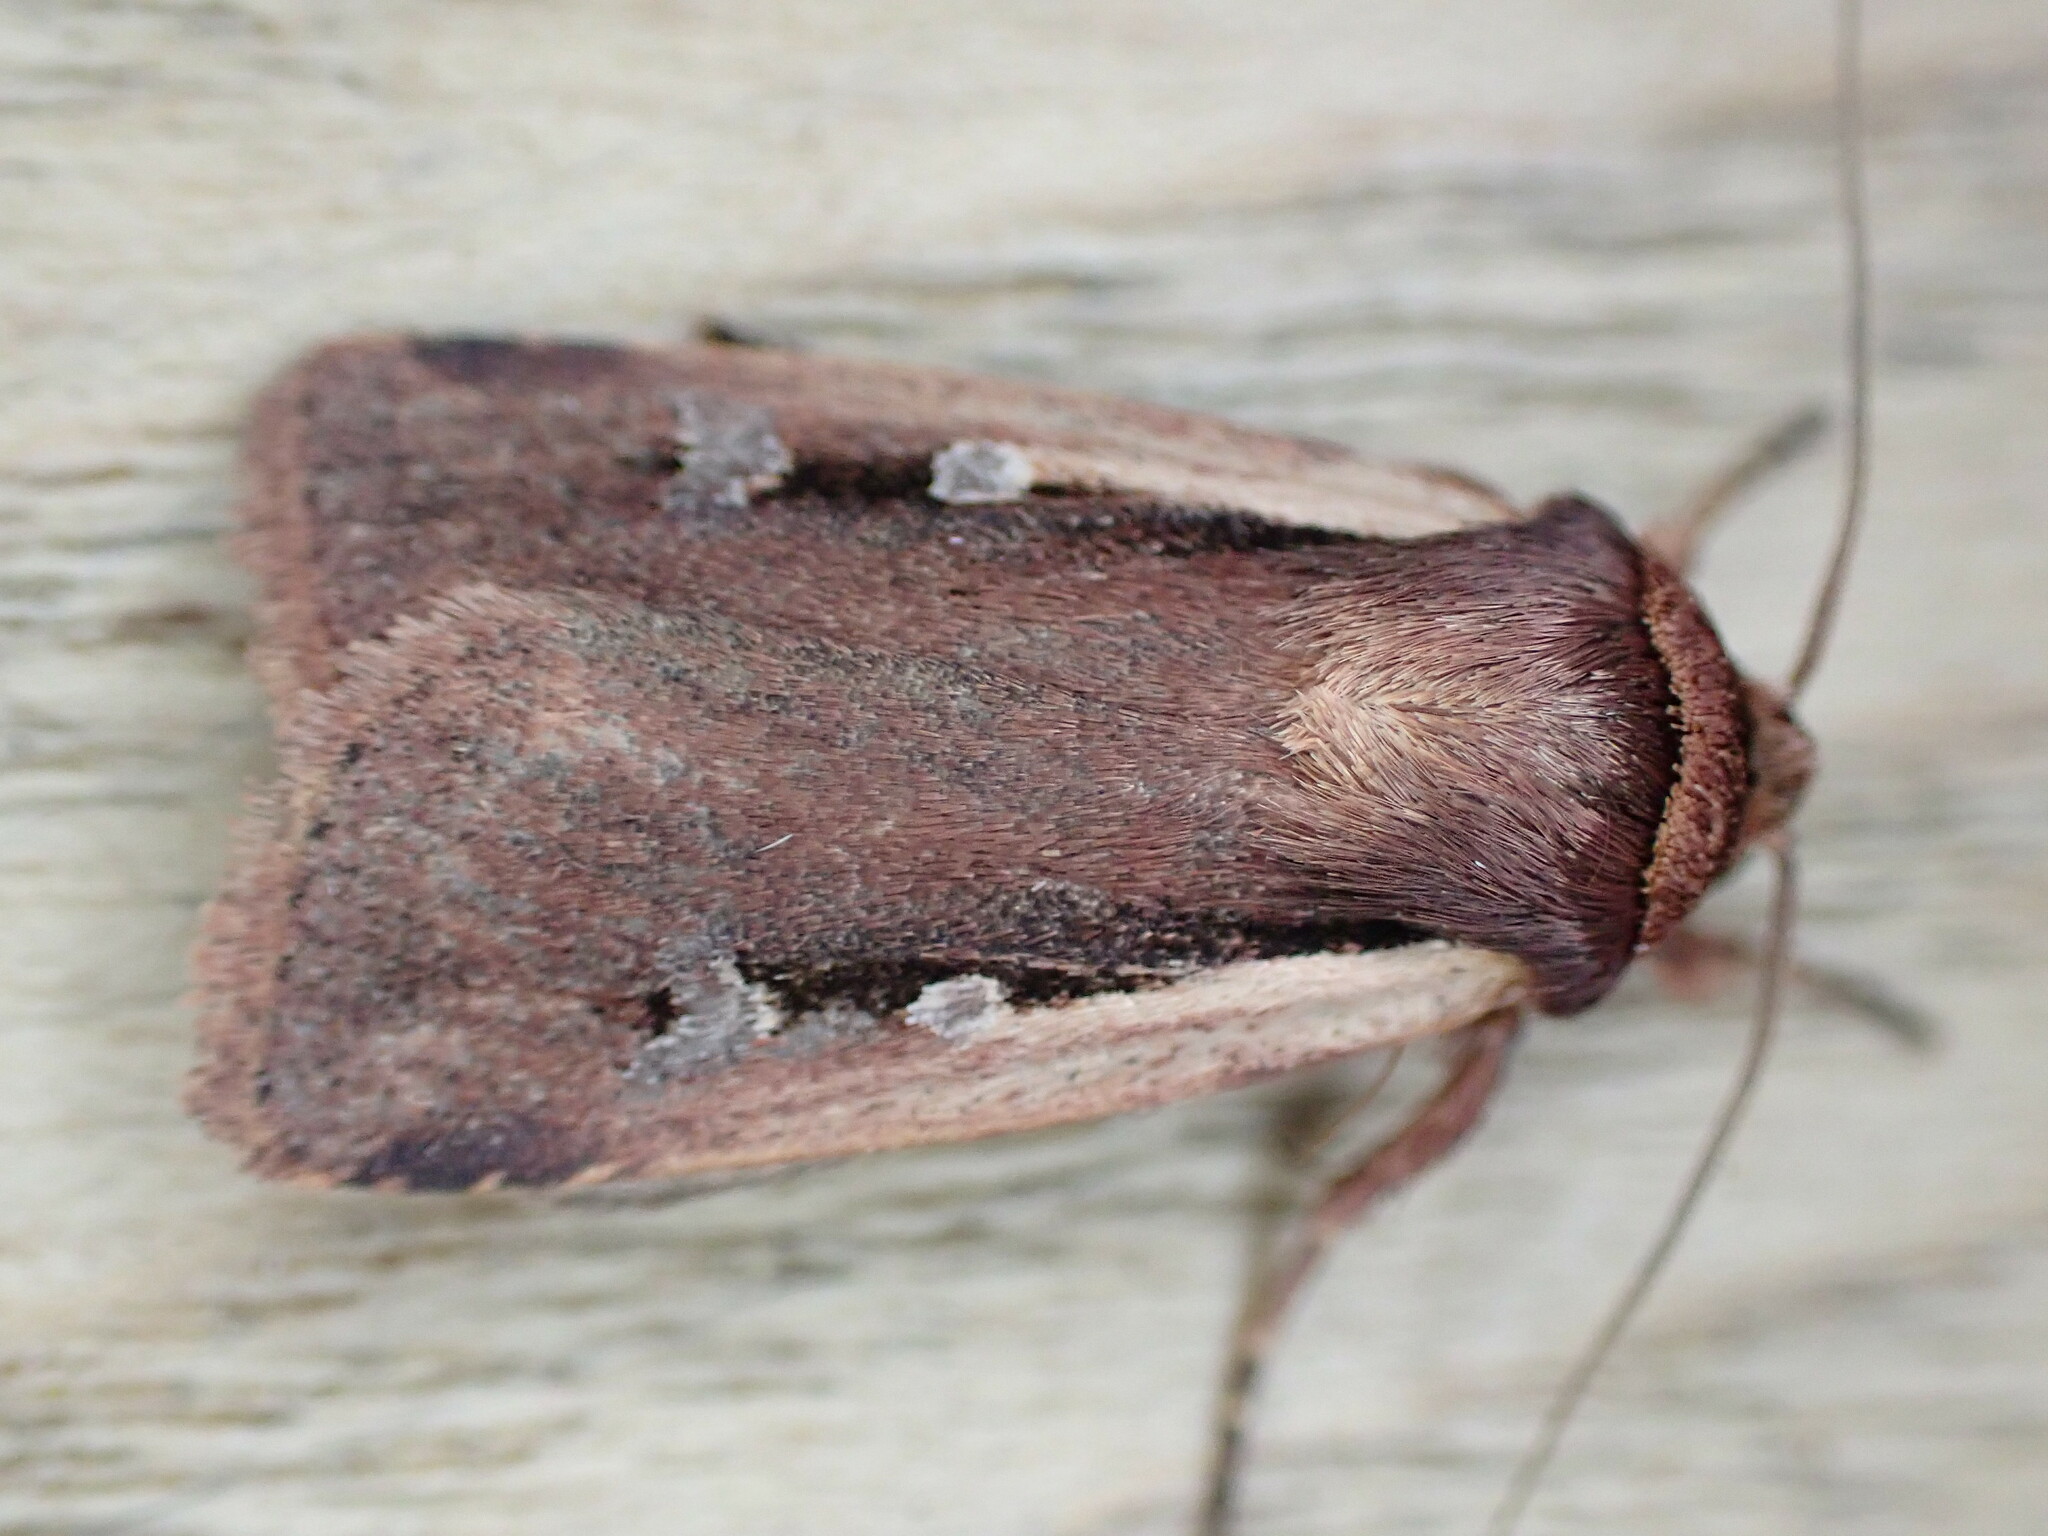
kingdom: Animalia
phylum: Arthropoda
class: Insecta
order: Lepidoptera
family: Noctuidae
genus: Ochropleura
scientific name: Ochropleura plecta
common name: Flame shoulder
